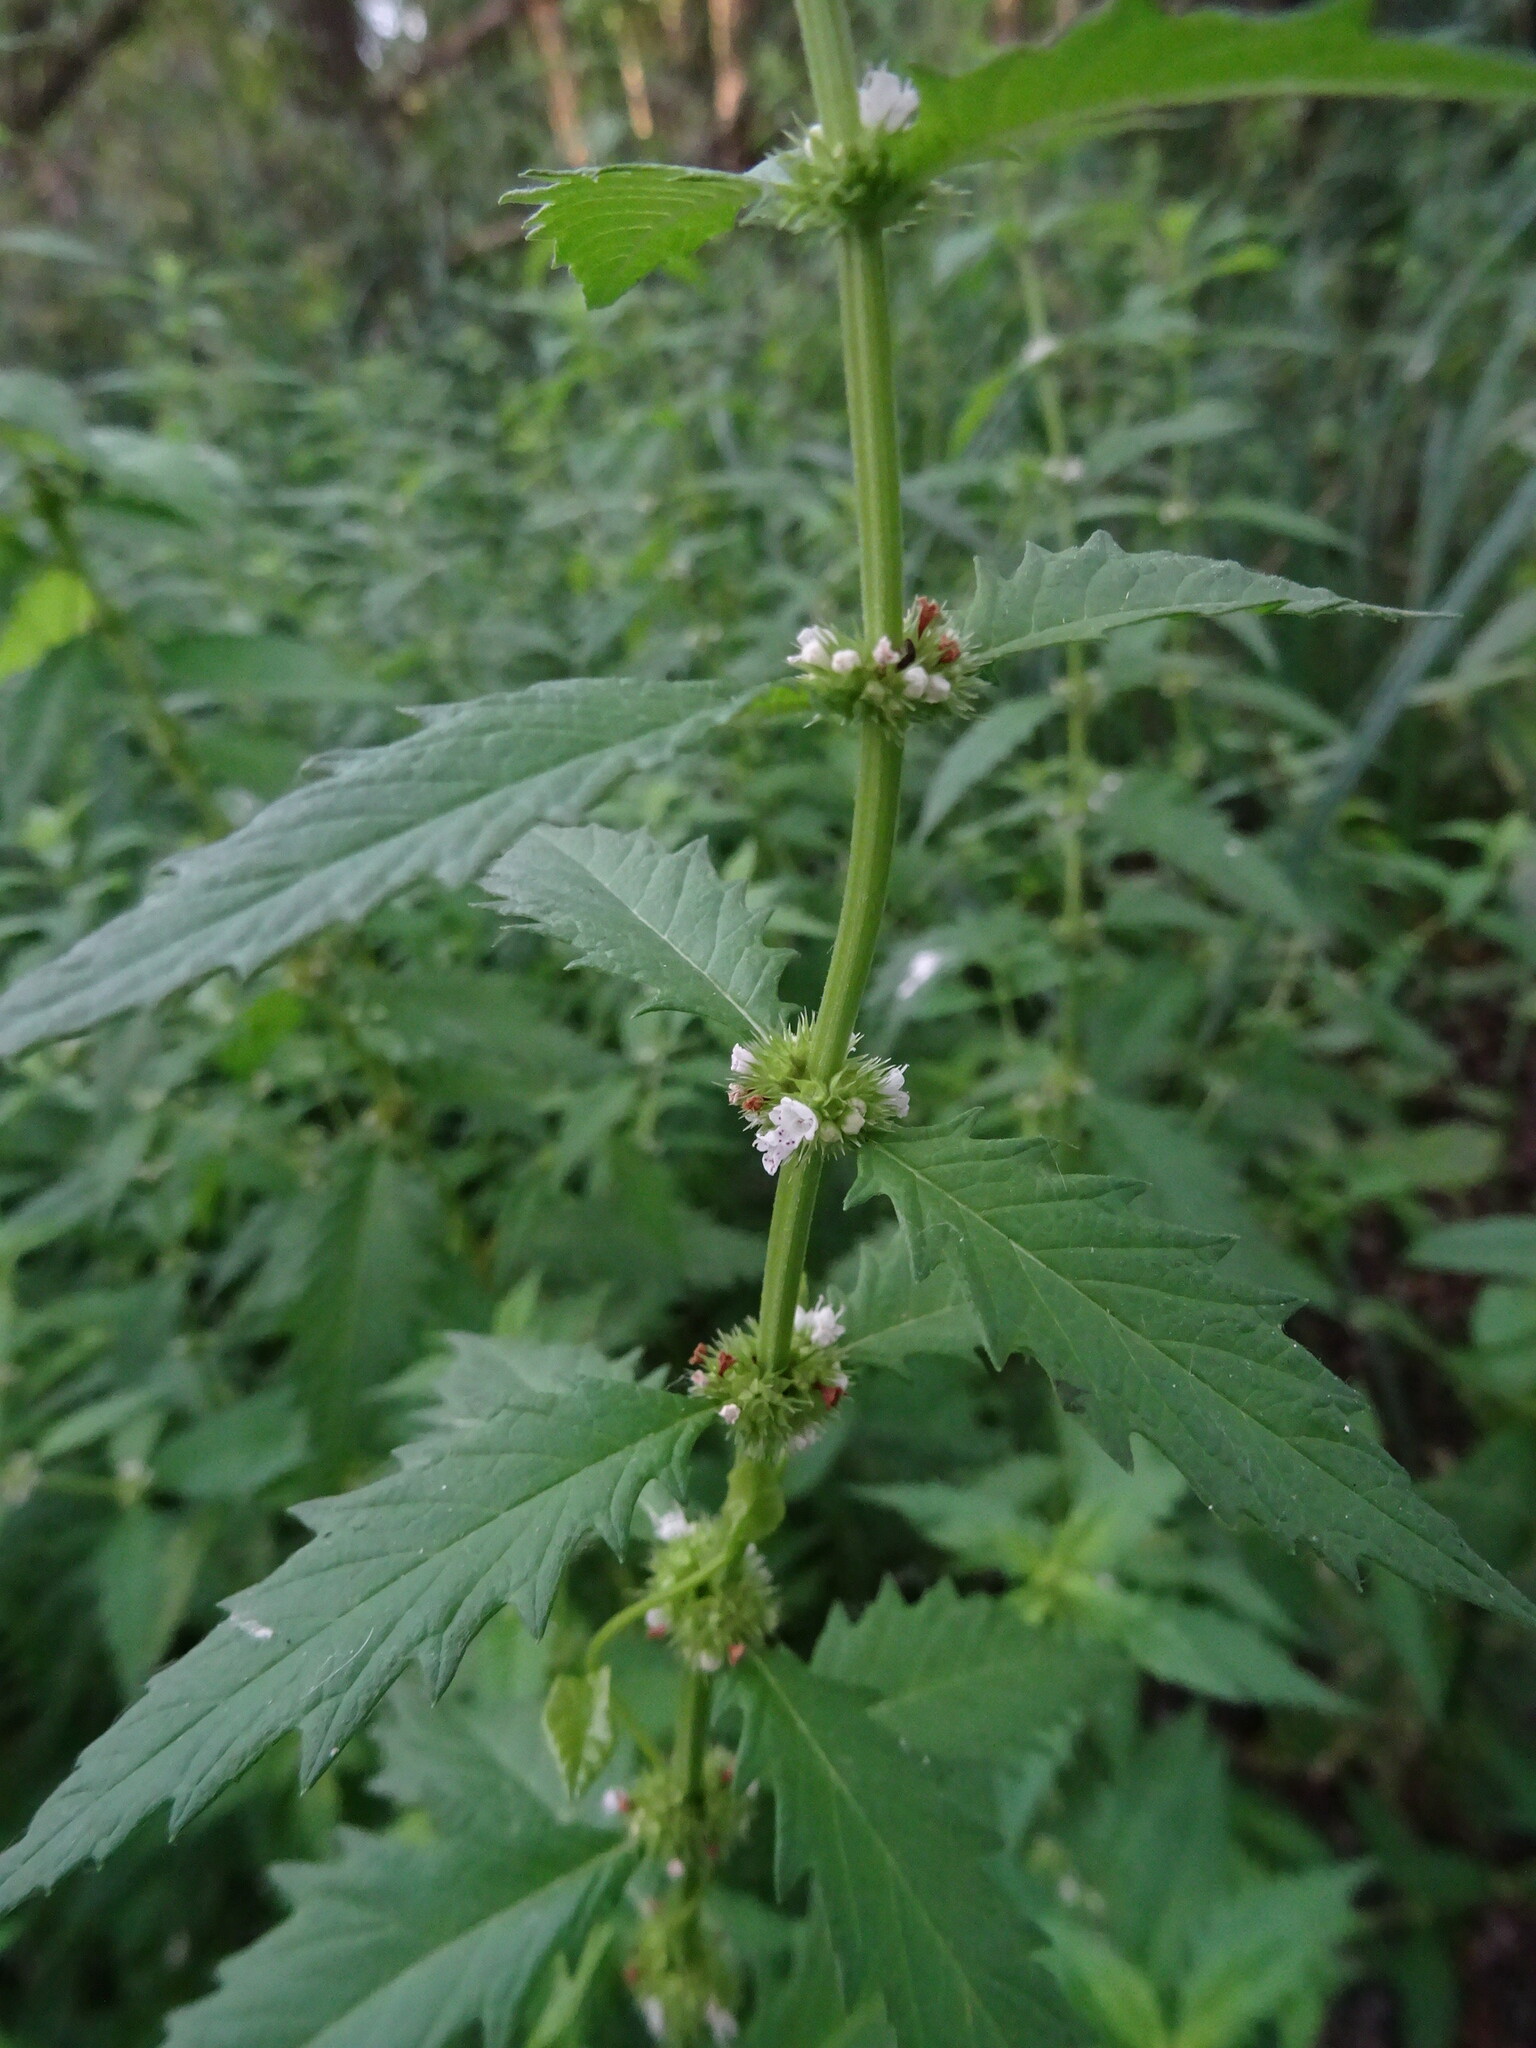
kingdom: Plantae
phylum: Tracheophyta
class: Magnoliopsida
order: Lamiales
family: Lamiaceae
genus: Lycopus
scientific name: Lycopus europaeus
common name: European bugleweed
